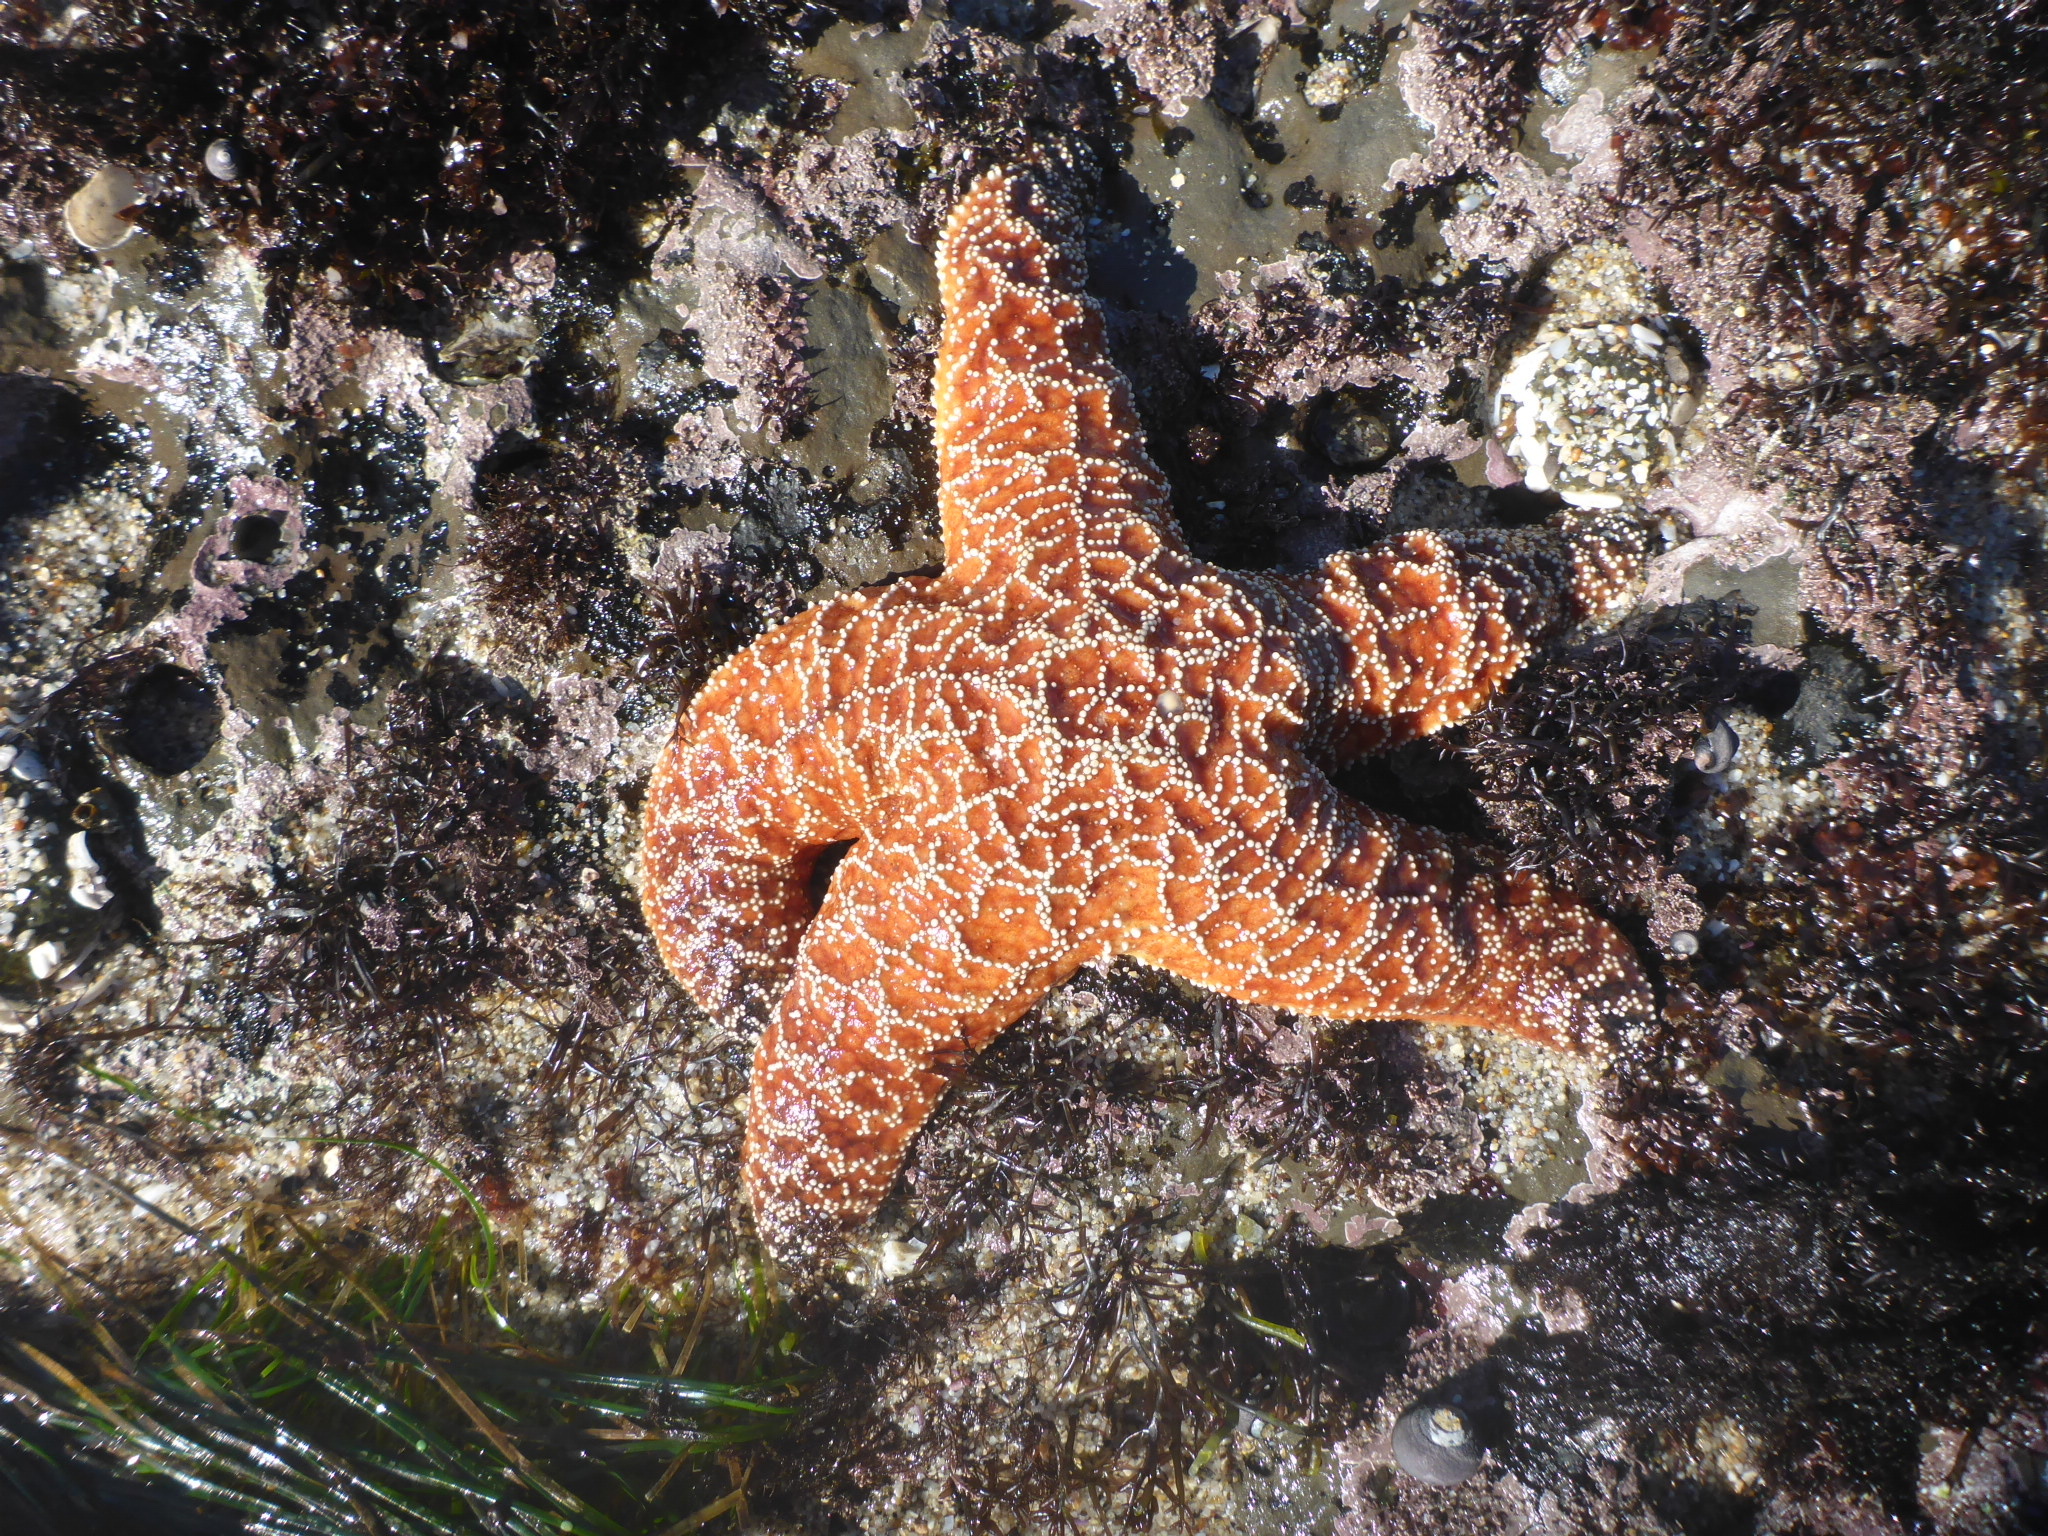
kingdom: Animalia
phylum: Echinodermata
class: Asteroidea
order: Forcipulatida
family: Asteriidae
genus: Pisaster
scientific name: Pisaster ochraceus
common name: Ochre stars
